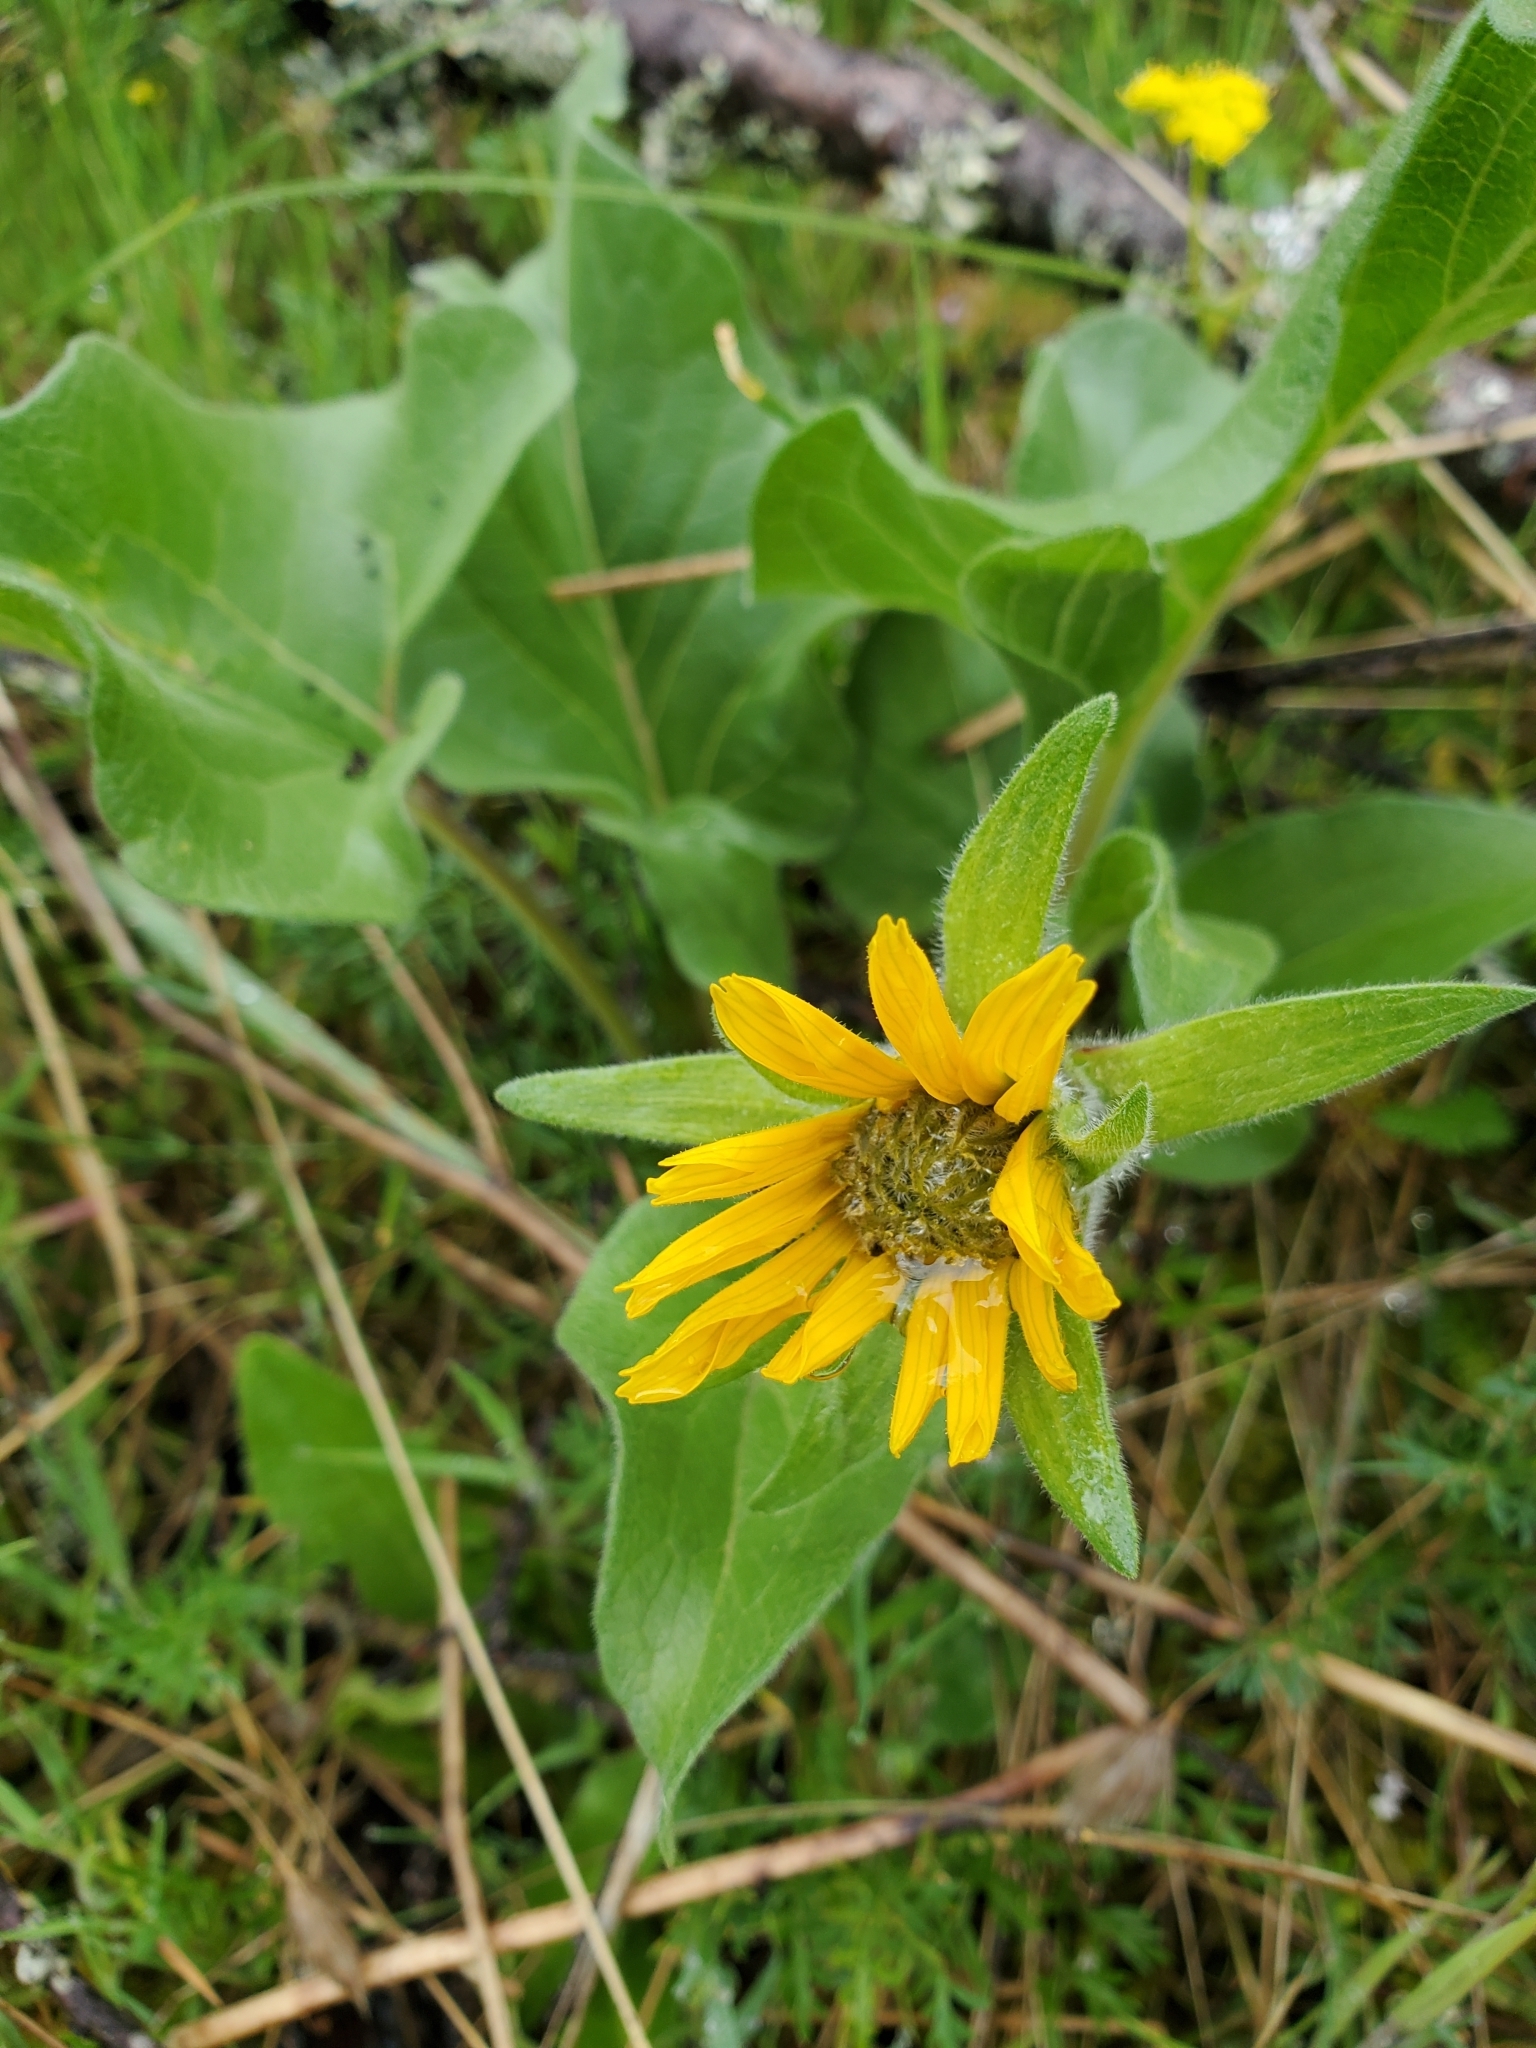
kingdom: Plantae
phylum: Tracheophyta
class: Magnoliopsida
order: Asterales
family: Asteraceae
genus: Balsamorhiza
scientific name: Balsamorhiza deltoidea
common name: Deltoid balsamroot
